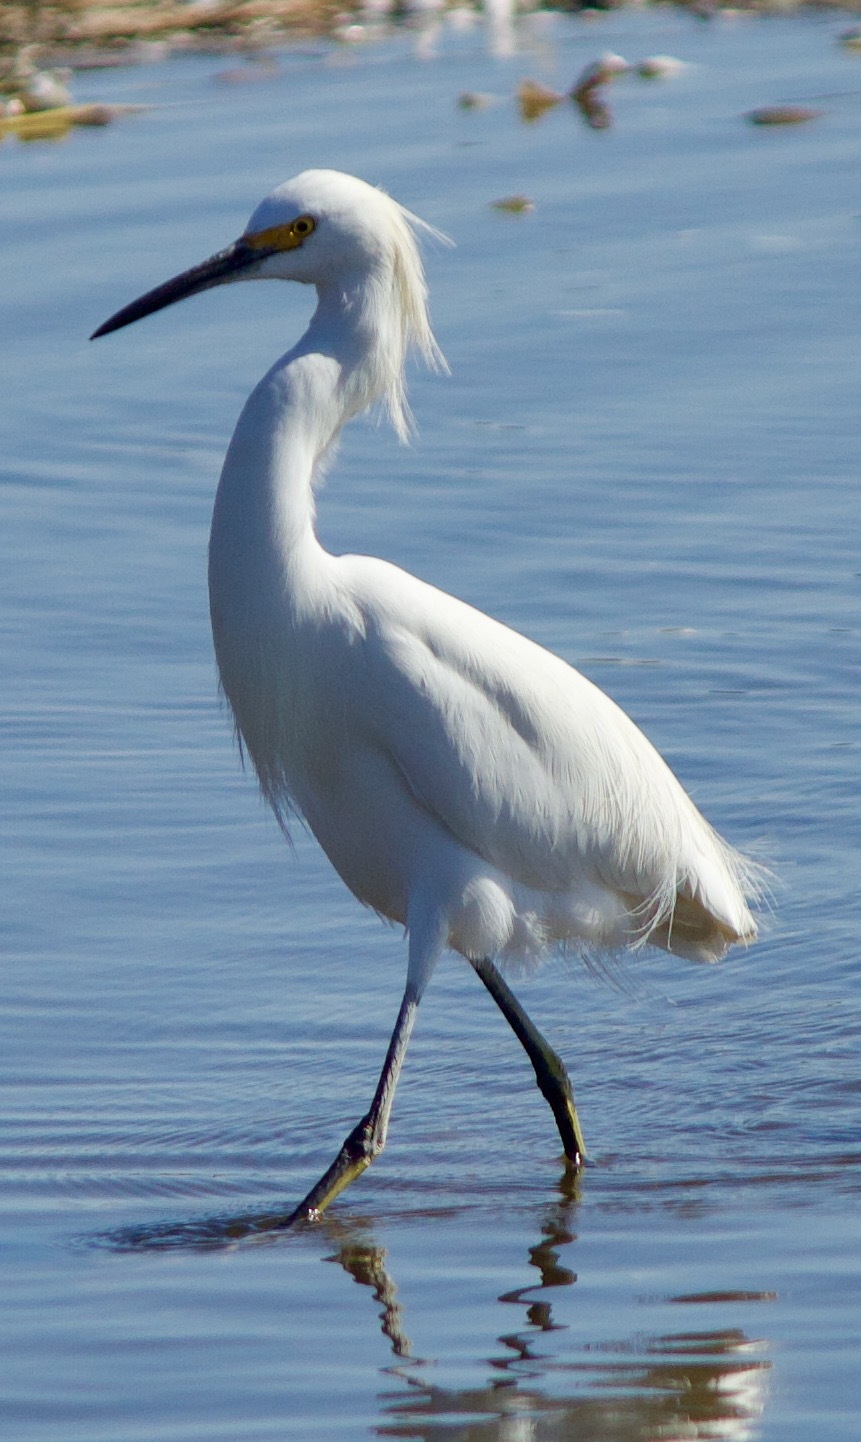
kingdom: Animalia
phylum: Chordata
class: Aves
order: Pelecaniformes
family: Ardeidae
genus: Egretta
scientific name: Egretta thula
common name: Snowy egret
